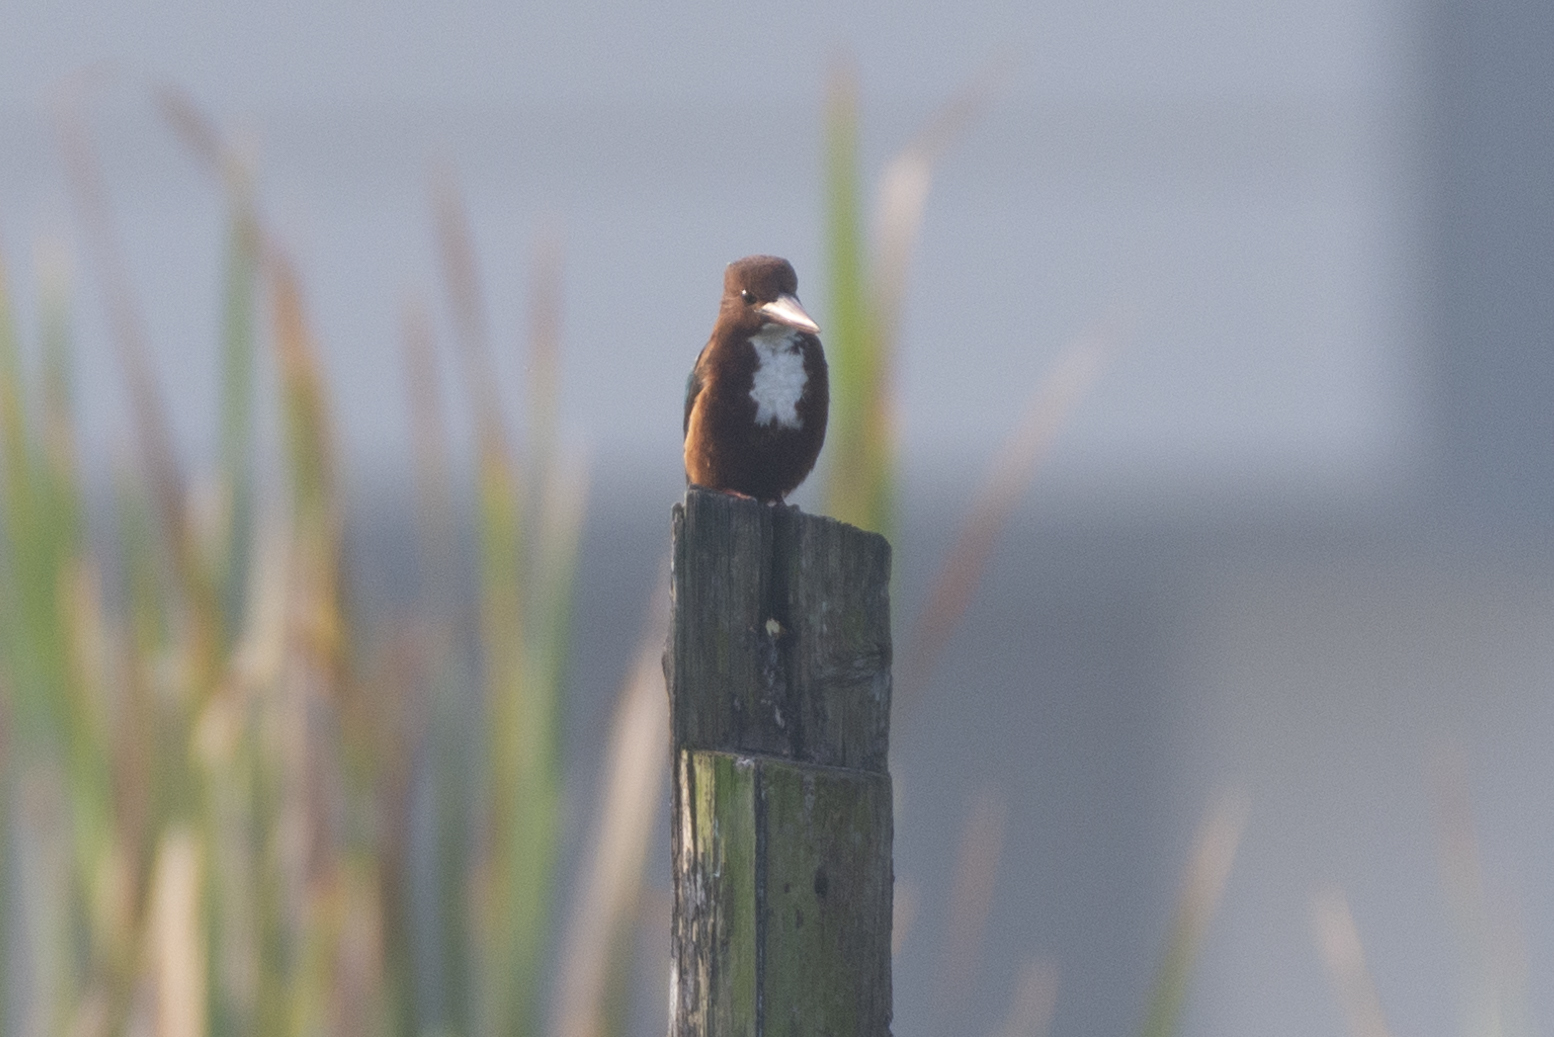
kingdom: Animalia
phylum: Chordata
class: Aves
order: Coraciiformes
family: Alcedinidae
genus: Halcyon
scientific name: Halcyon smyrnensis
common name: White-throated kingfisher
